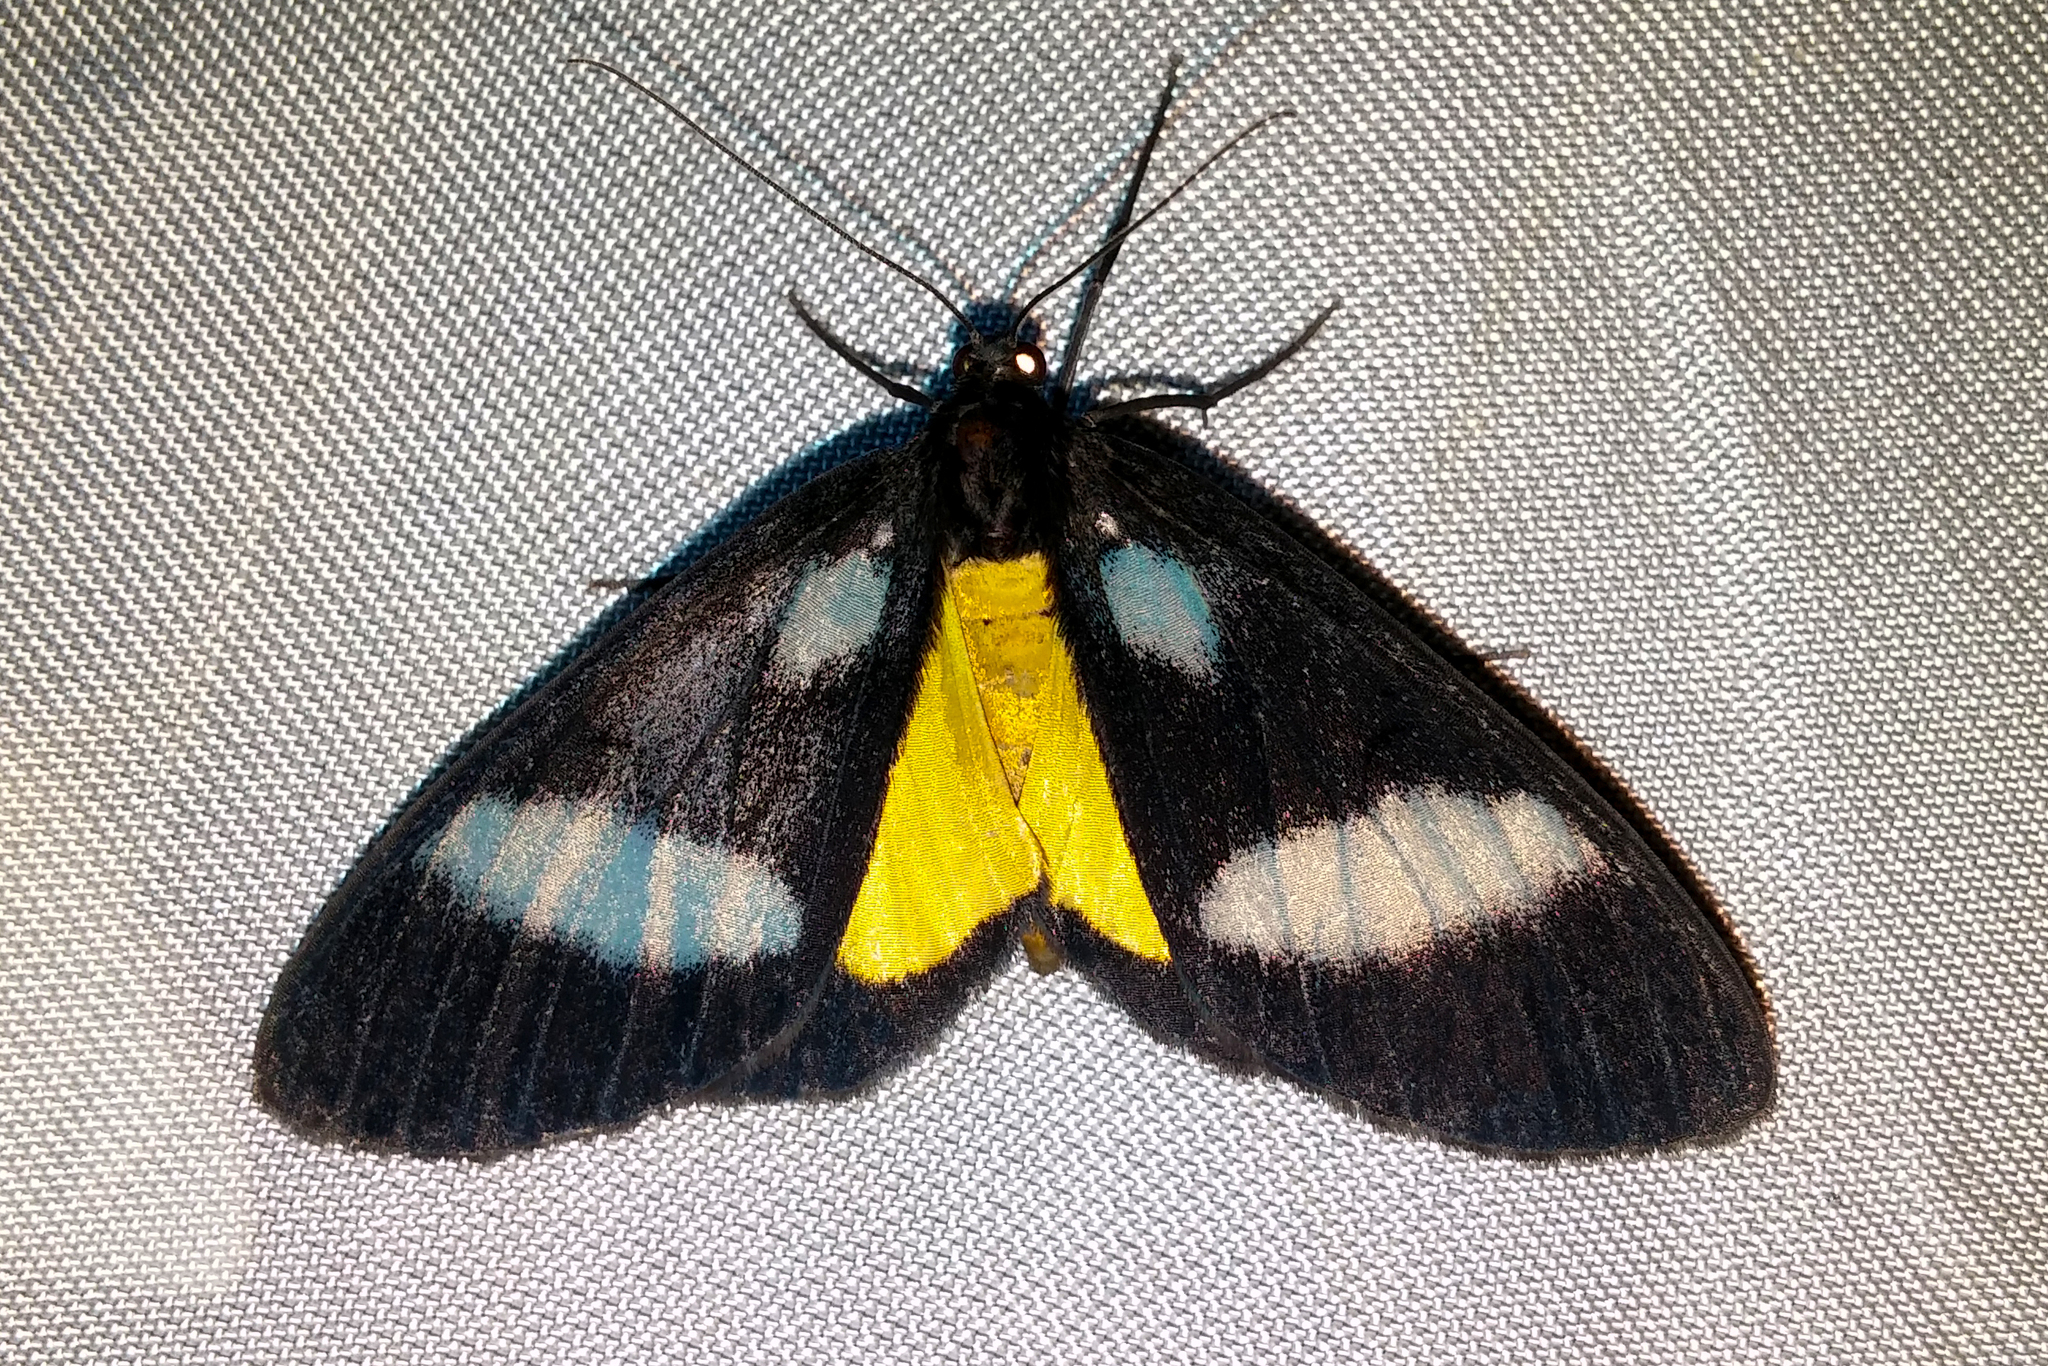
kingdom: Animalia
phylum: Arthropoda
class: Insecta
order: Lepidoptera
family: Geometridae
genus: Lobocraspeda
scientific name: Lobocraspeda latefascia
